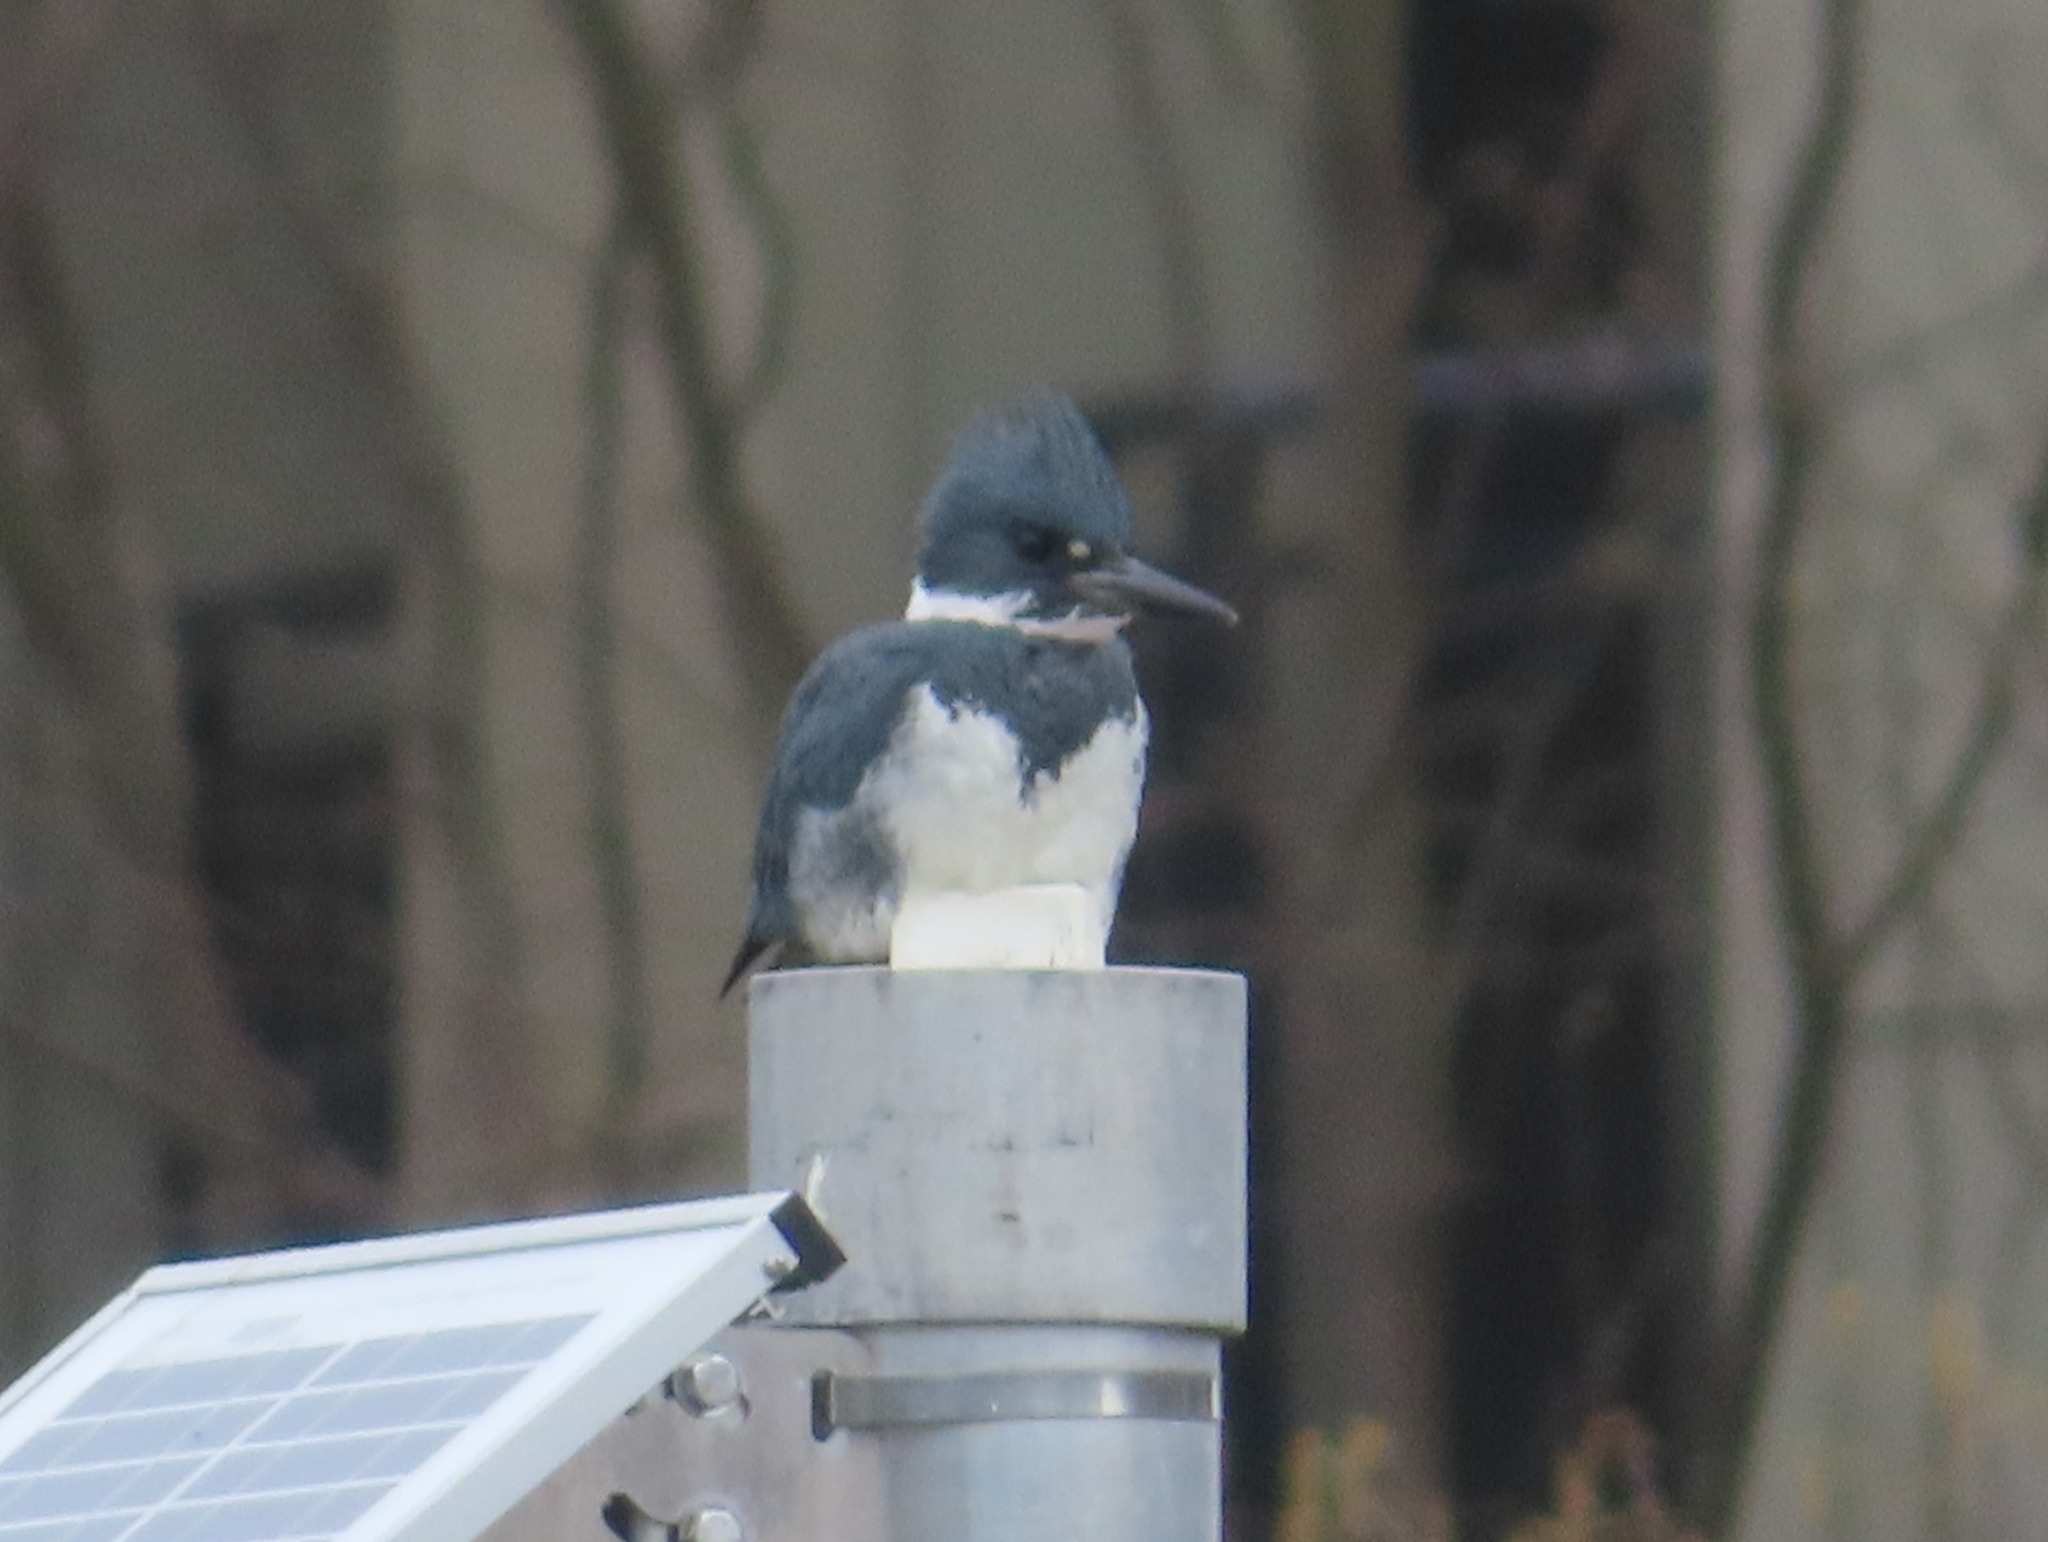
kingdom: Animalia
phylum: Chordata
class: Aves
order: Coraciiformes
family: Alcedinidae
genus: Megaceryle
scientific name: Megaceryle alcyon
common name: Belted kingfisher
